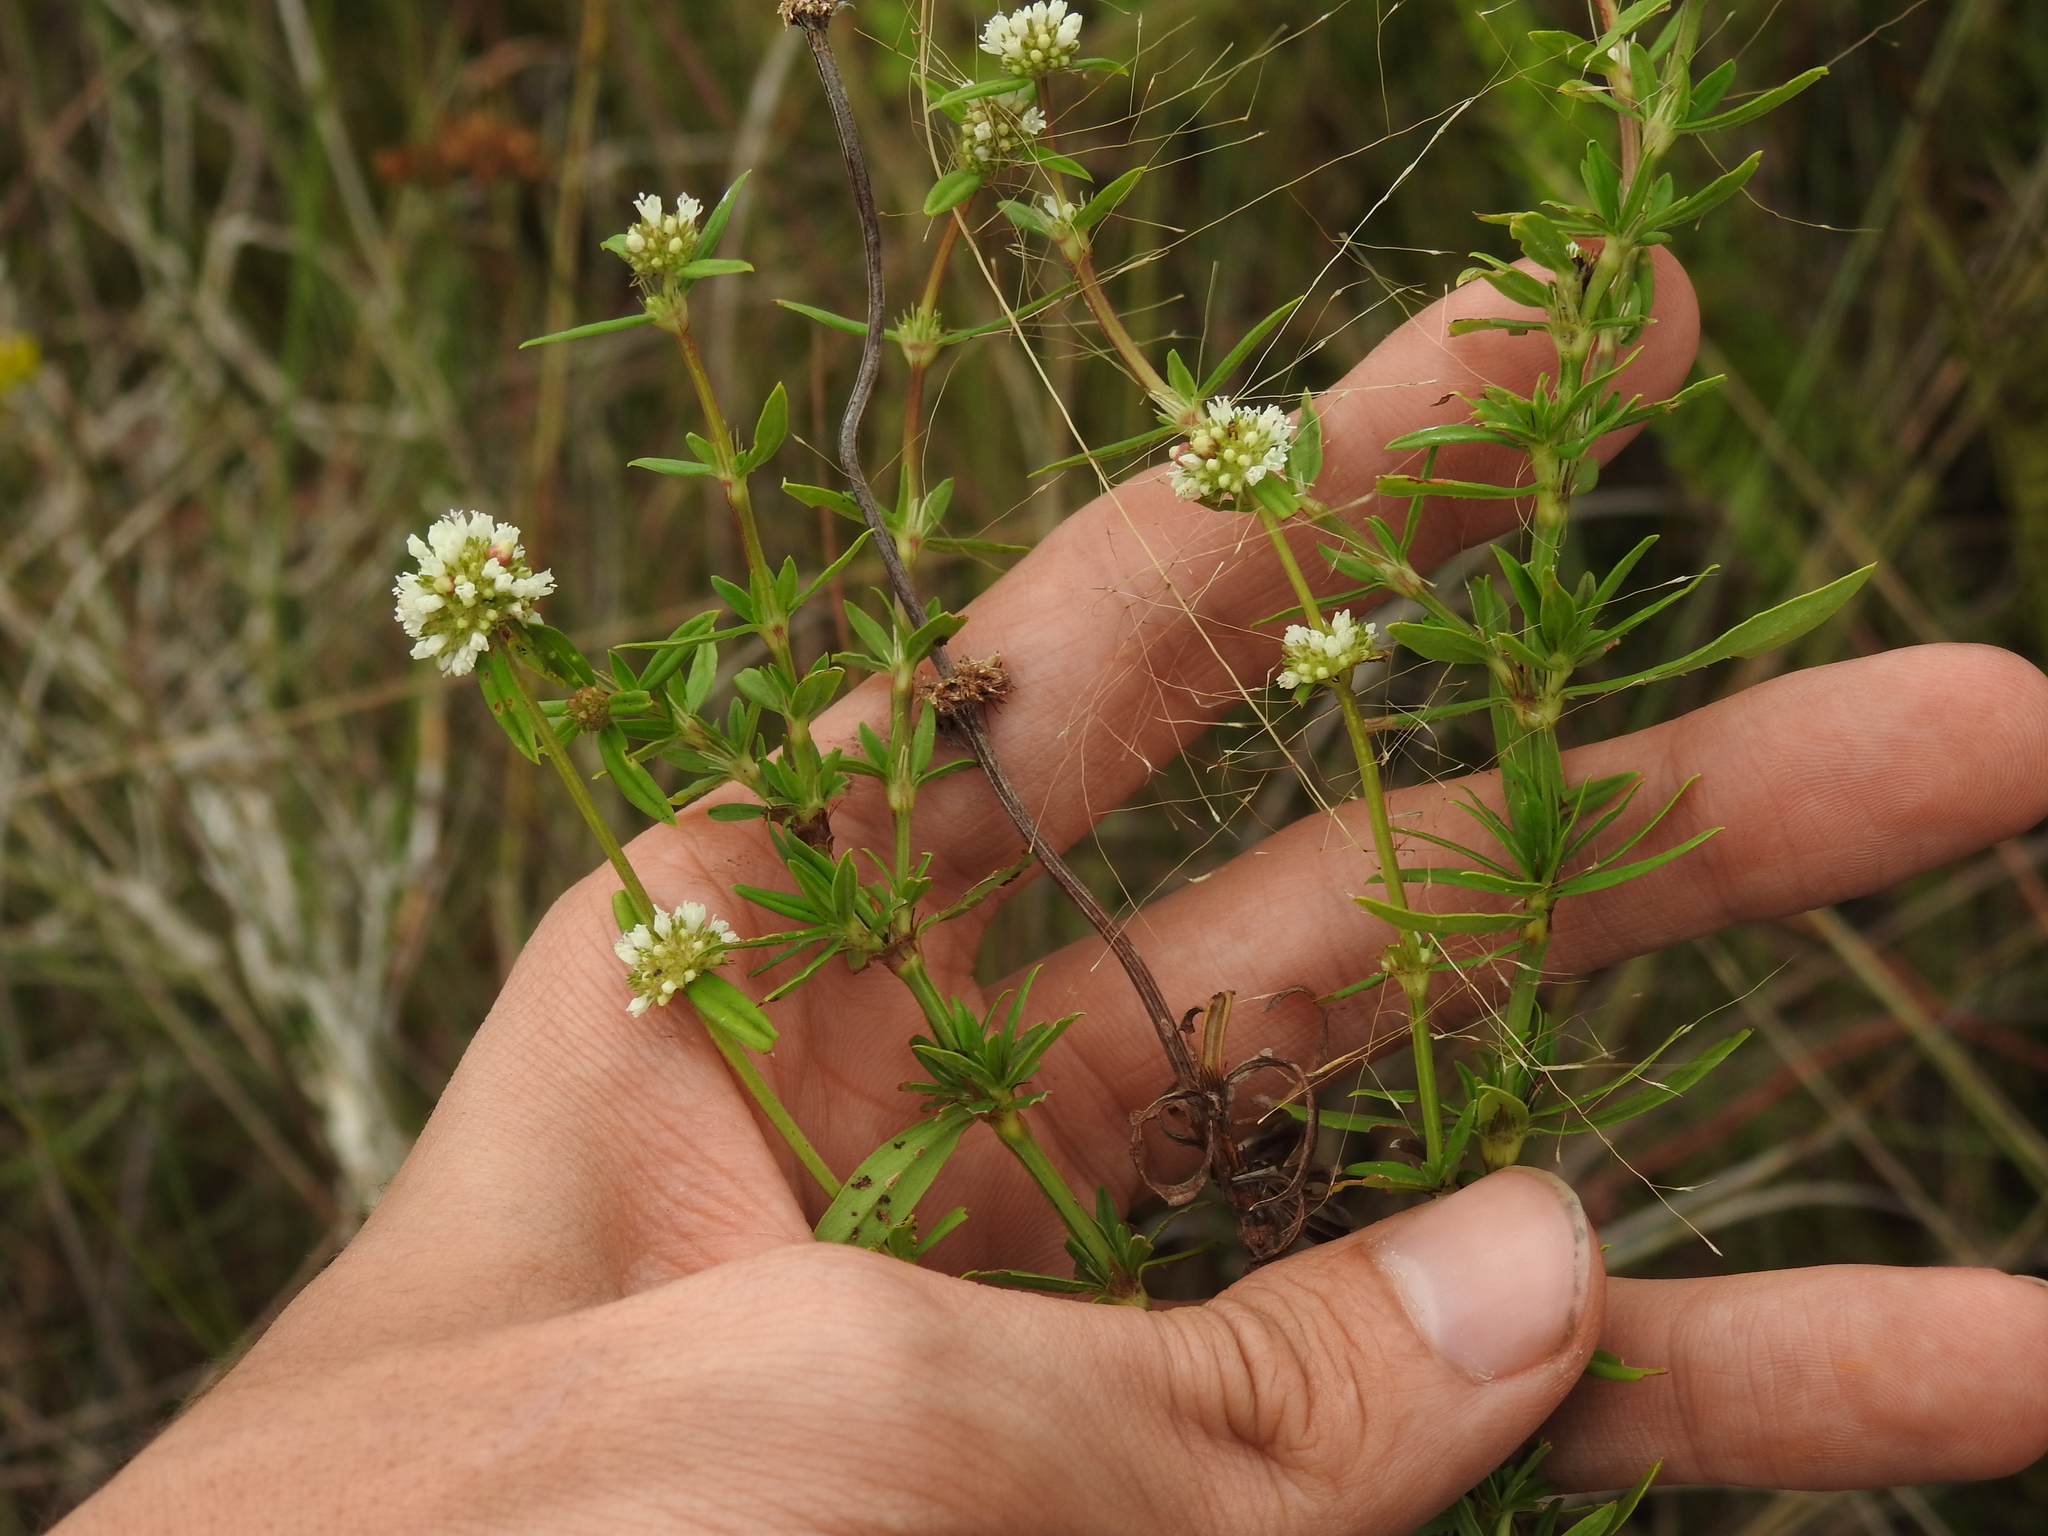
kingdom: Plantae
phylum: Tracheophyta
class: Magnoliopsida
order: Gentianales
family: Rubiaceae
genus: Spermacoce
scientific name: Spermacoce verticillata
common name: Shrubby false buttonweed
